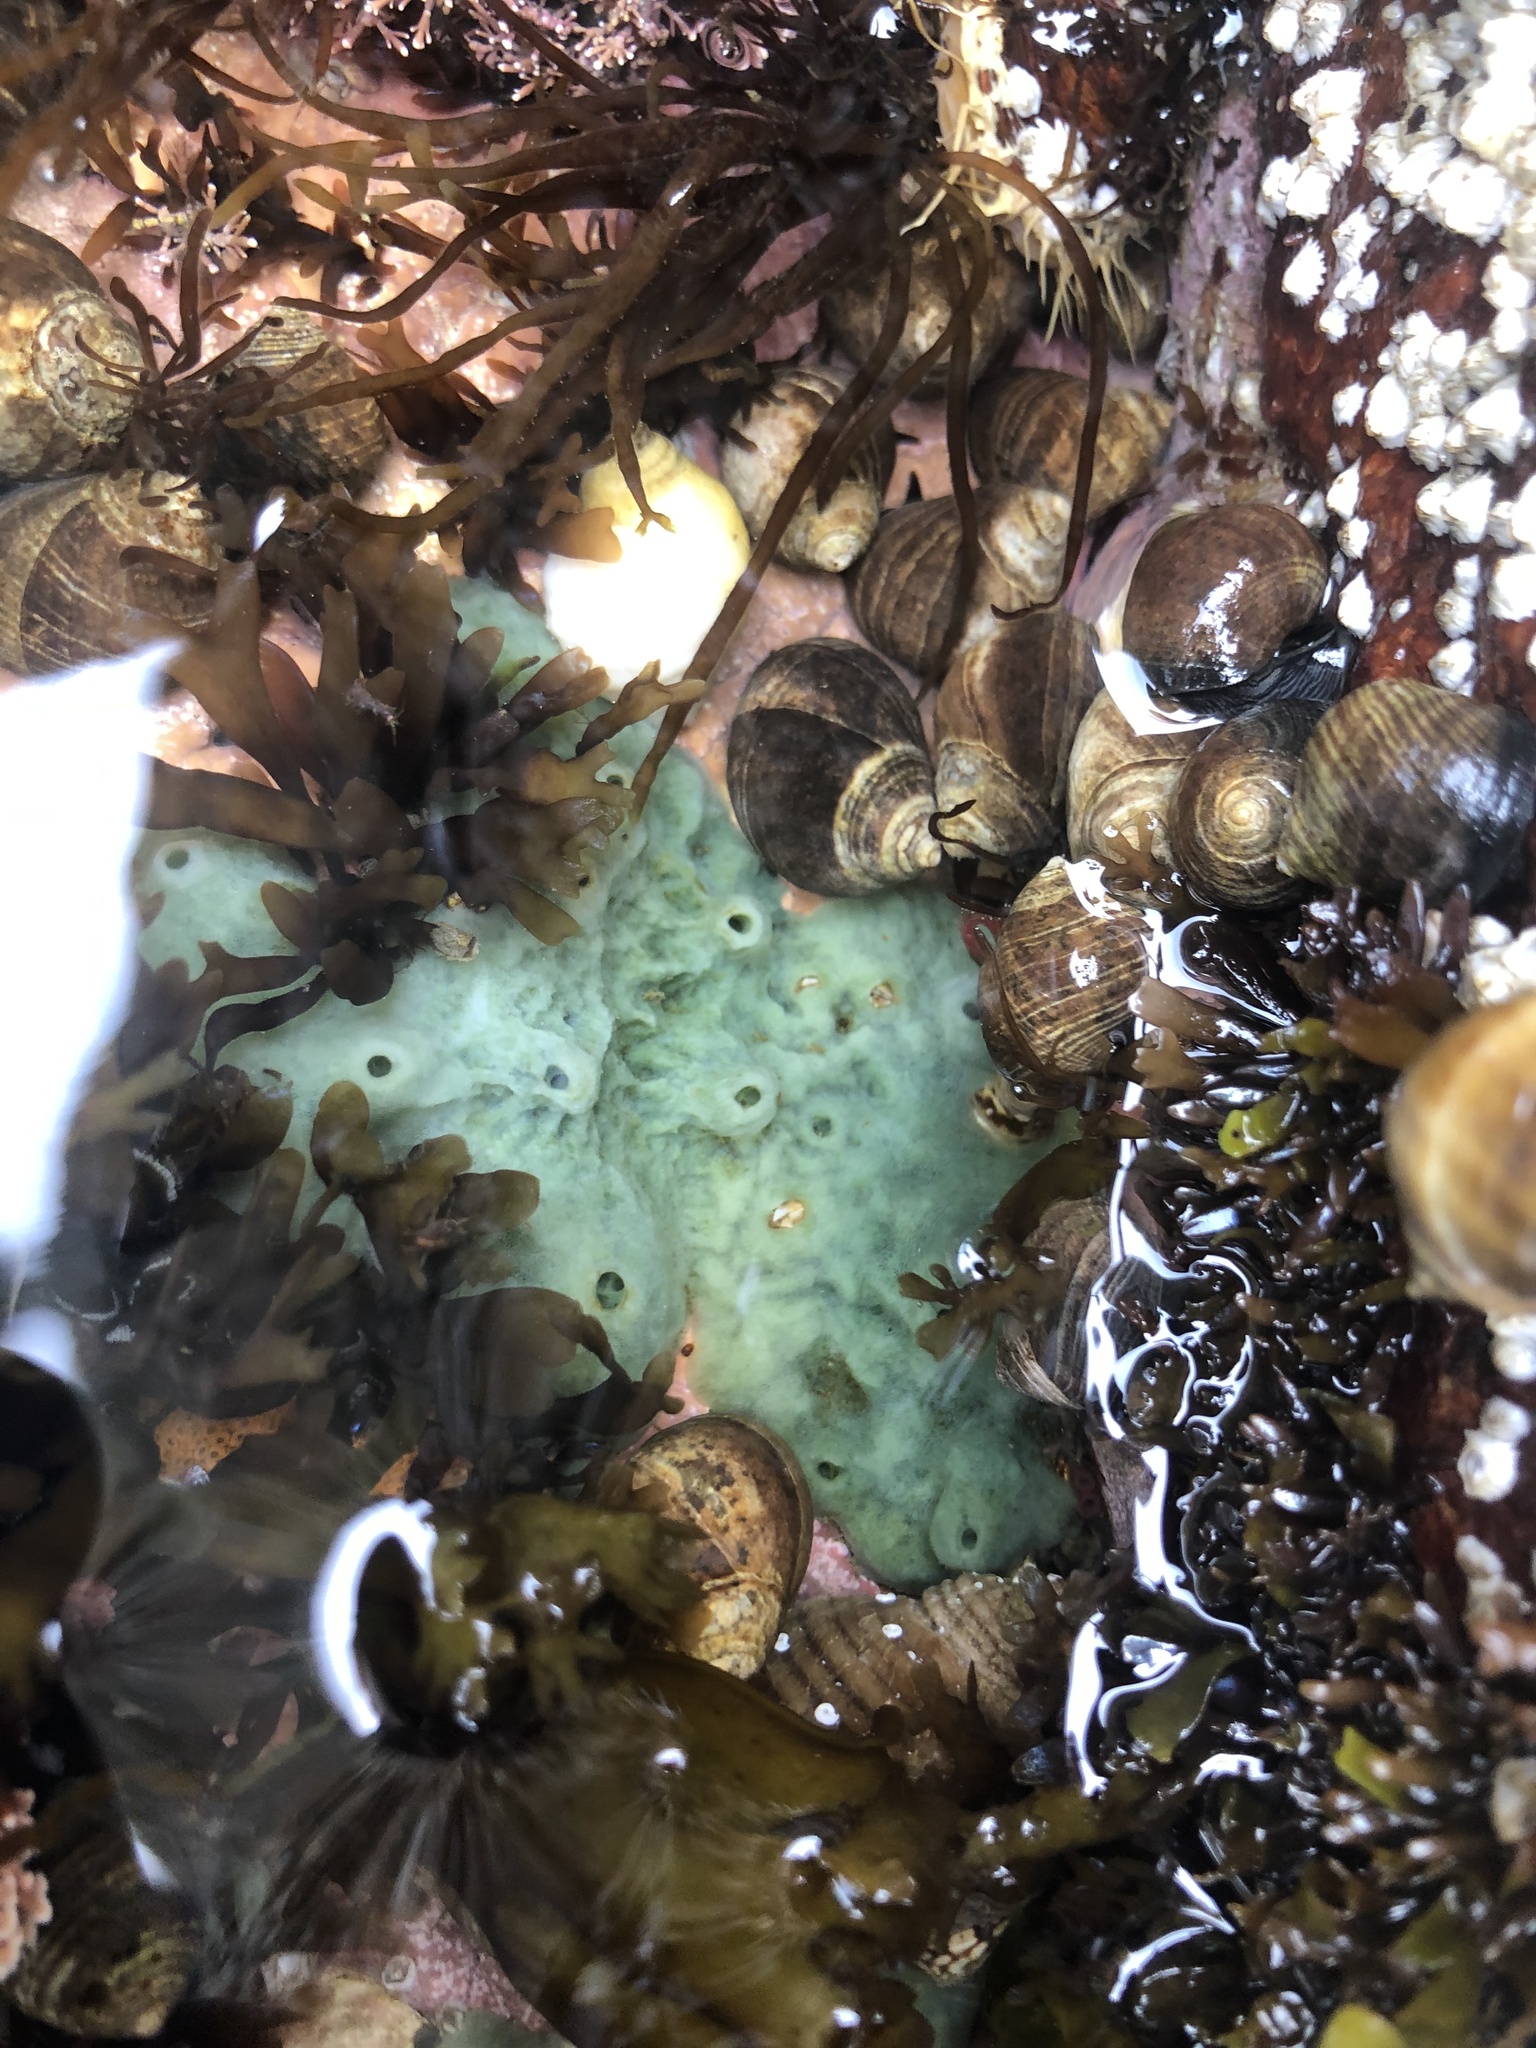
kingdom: Animalia
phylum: Porifera
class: Demospongiae
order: Suberitida
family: Halichondriidae
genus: Halichondria
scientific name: Halichondria panicea
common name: Breadcrumb sponge
